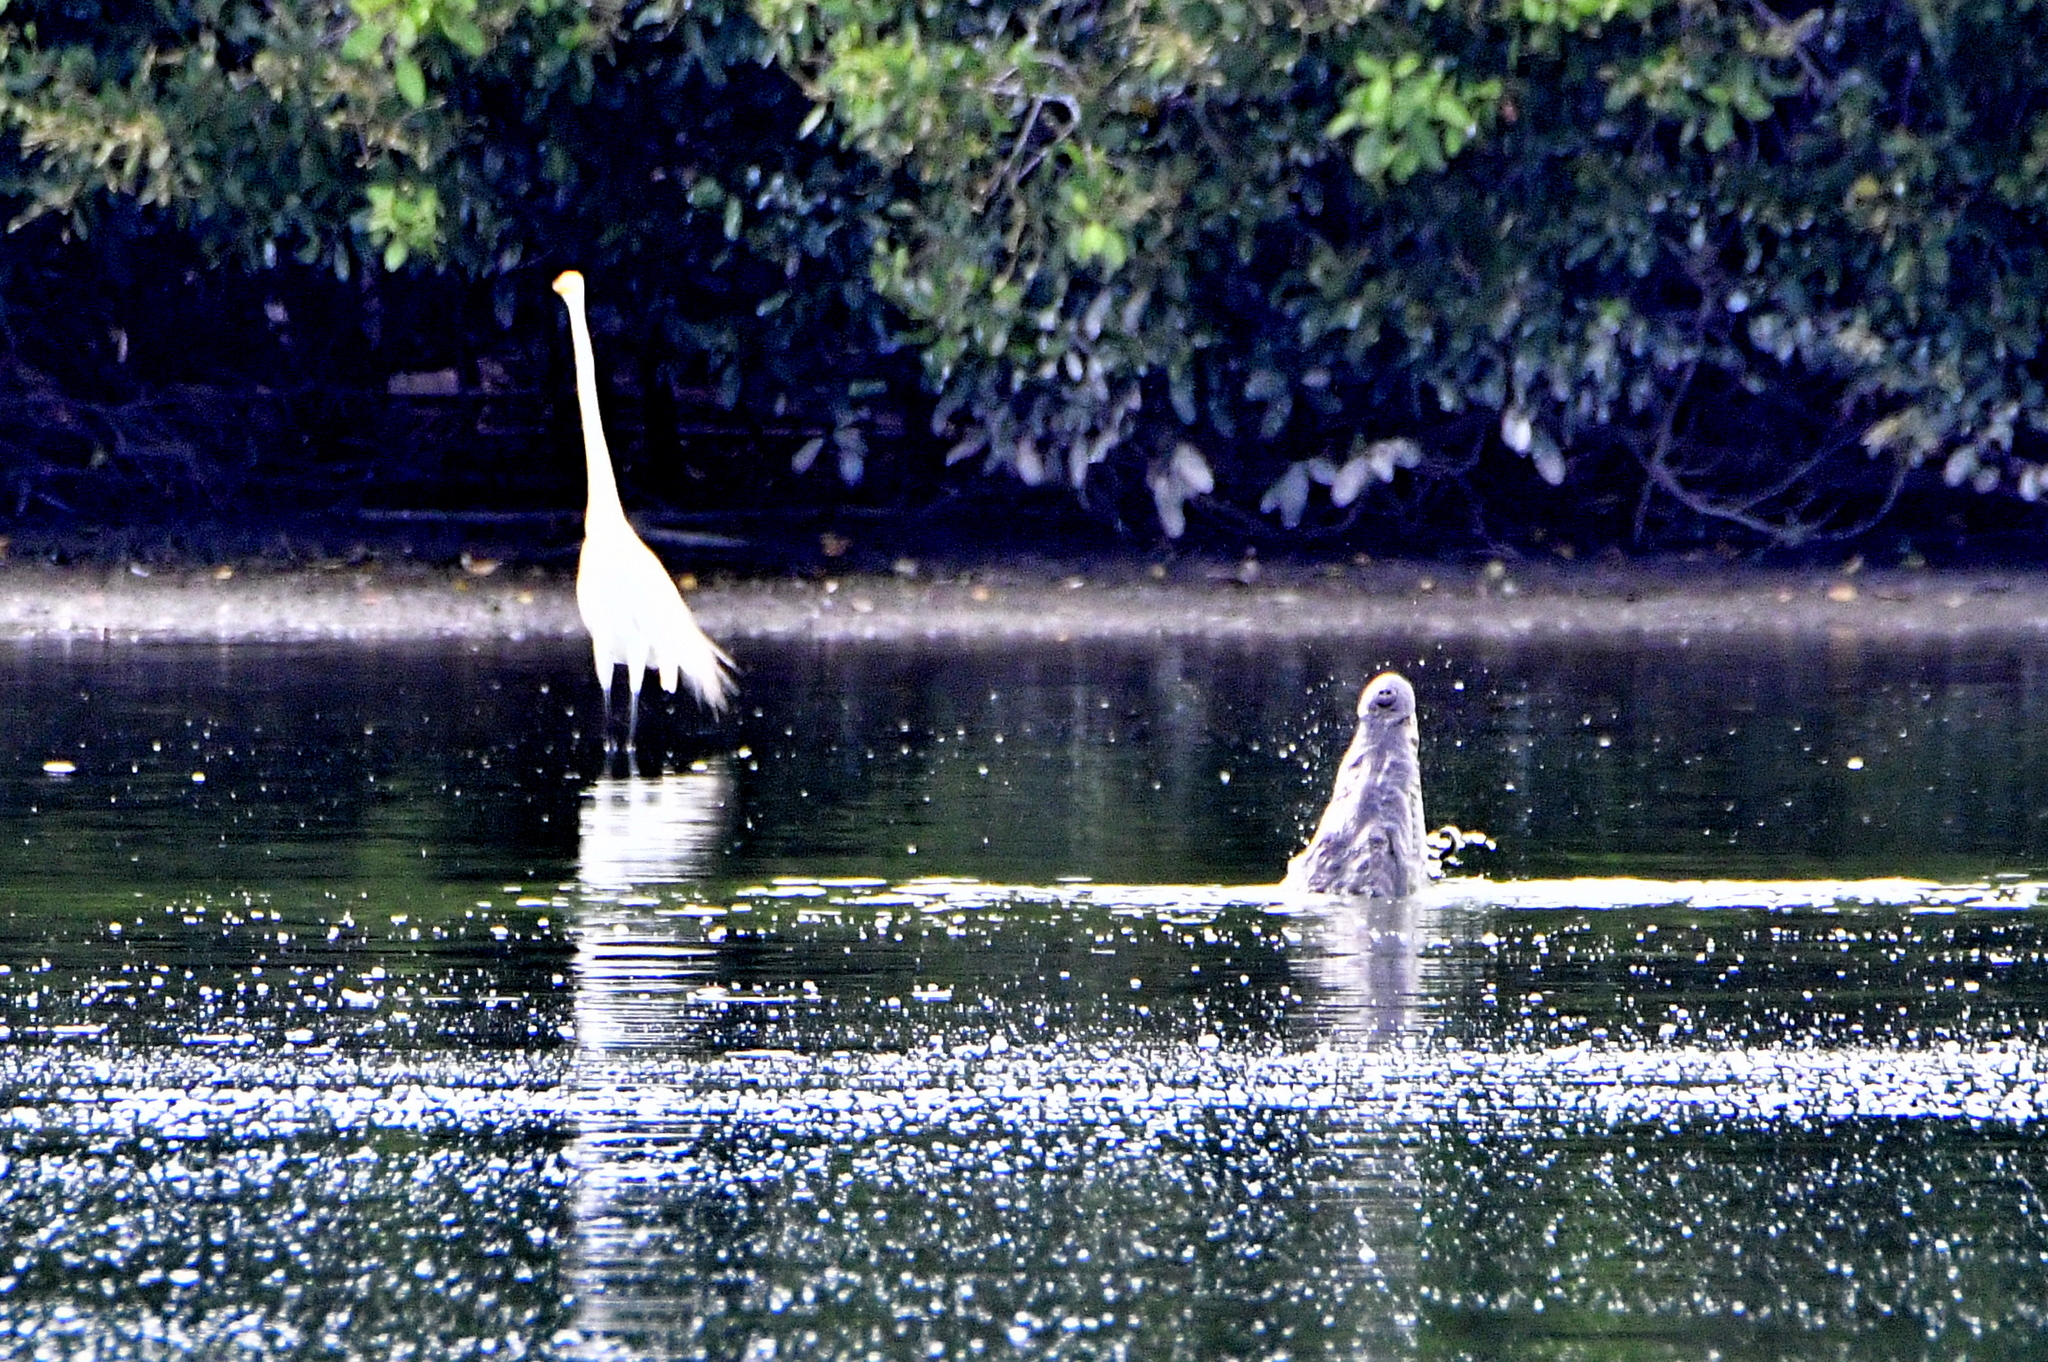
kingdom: Animalia
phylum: Chordata
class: Crocodylia
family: Crocodylidae
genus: Crocodylus
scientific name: Crocodylus acutus
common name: American crocodile
